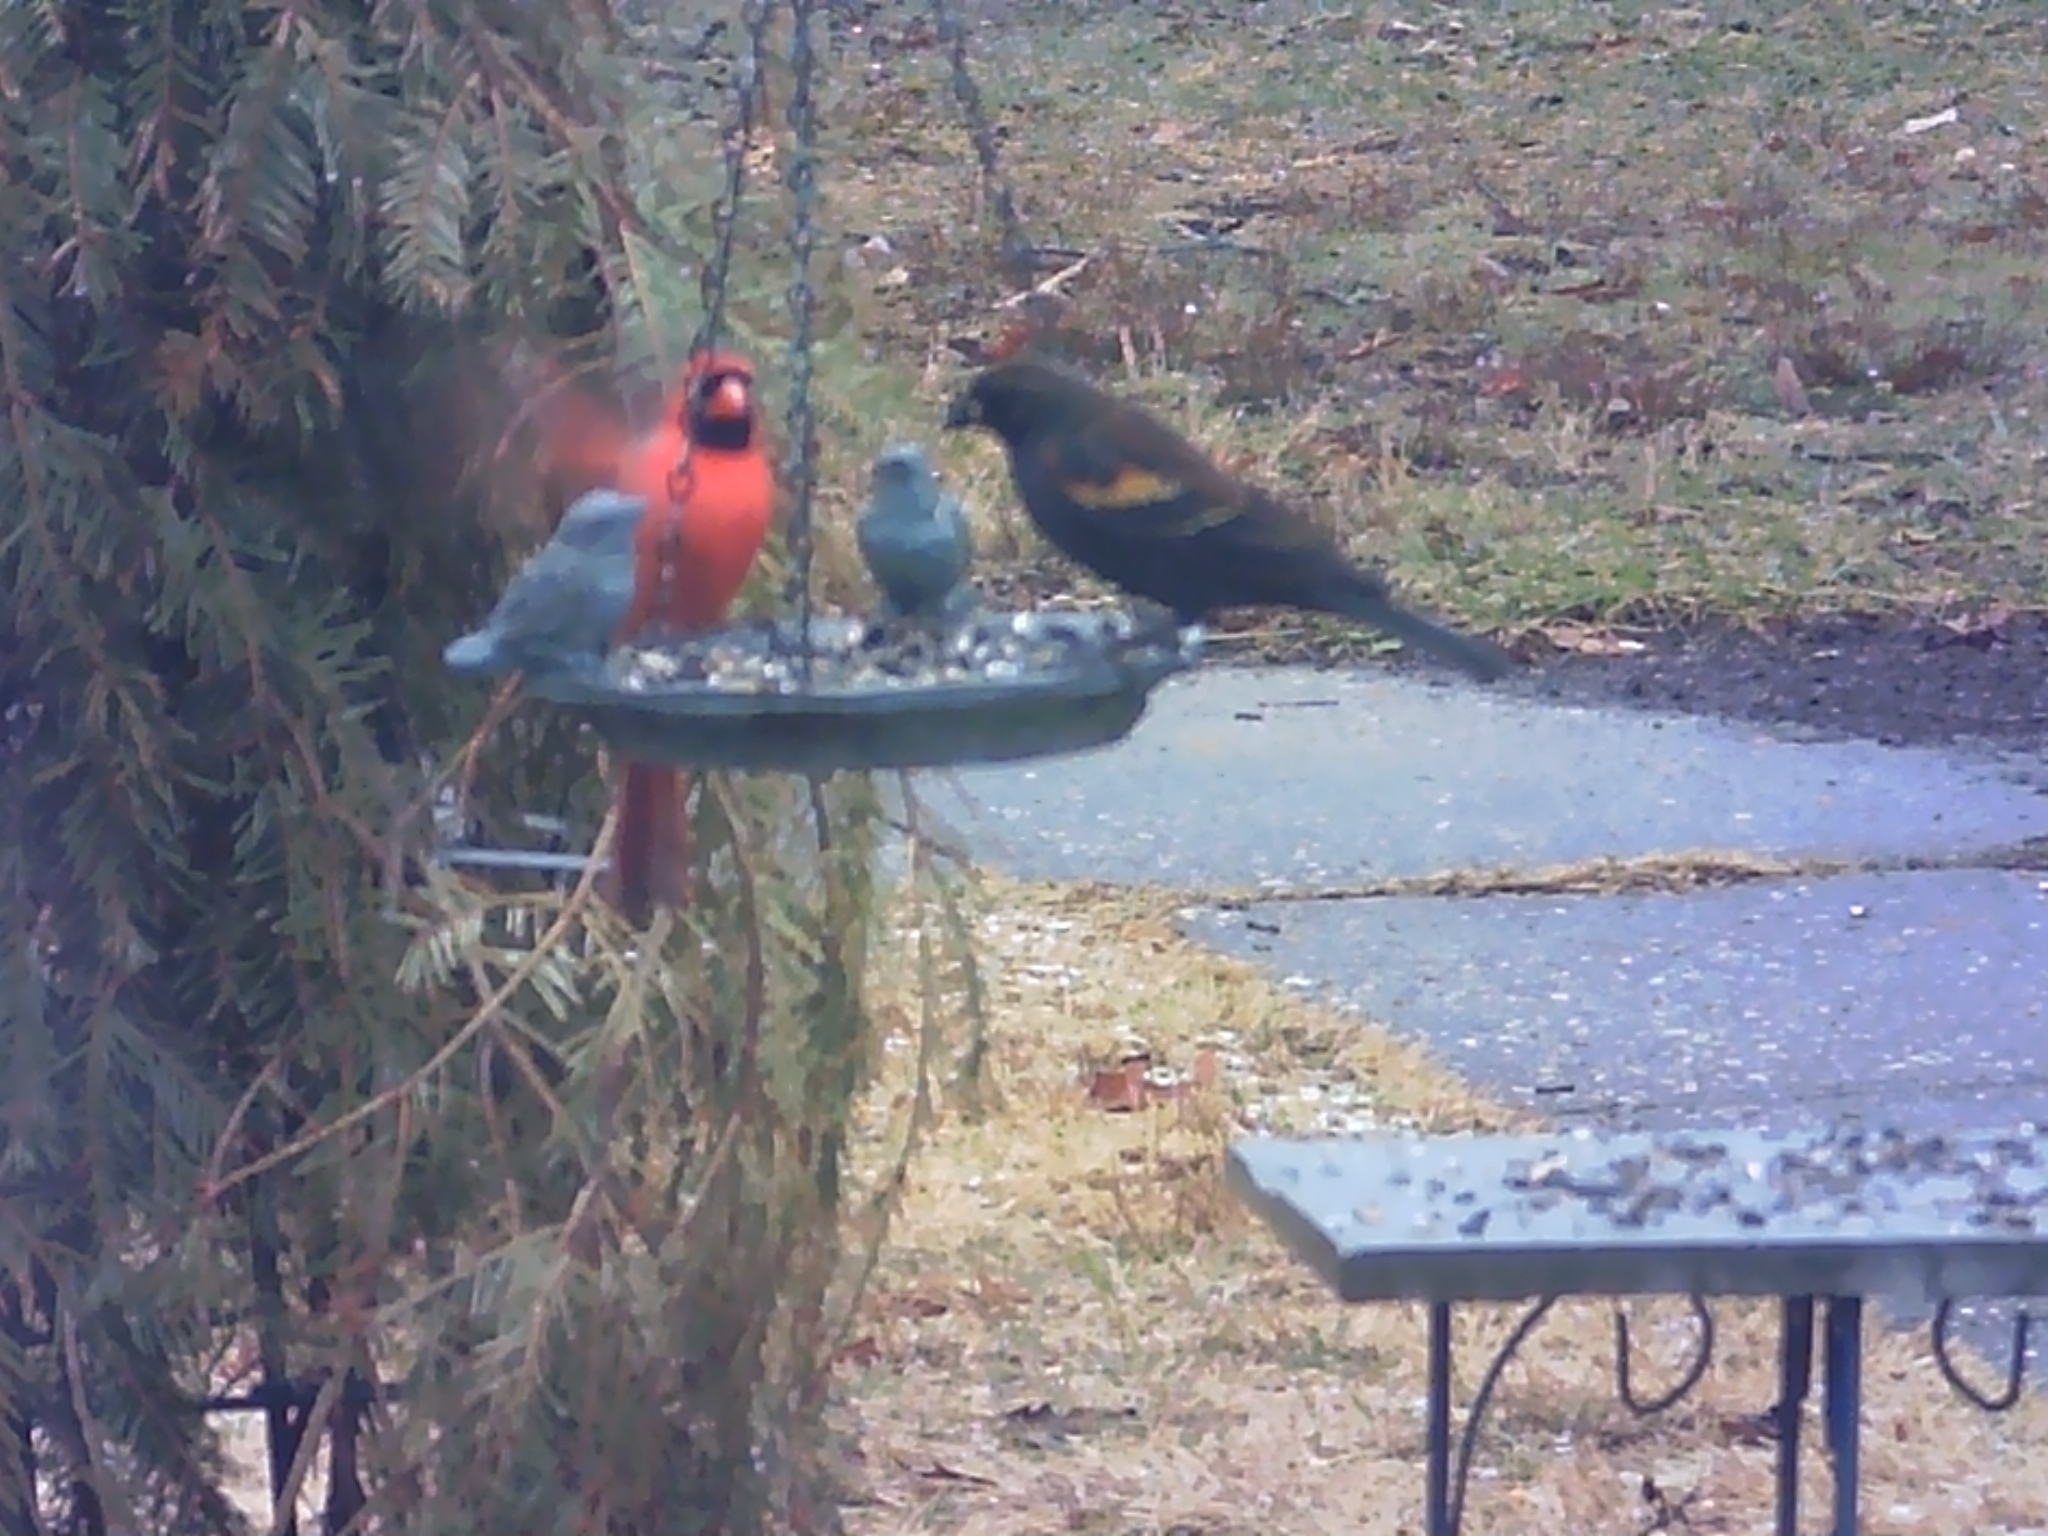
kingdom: Animalia
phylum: Chordata
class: Aves
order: Passeriformes
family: Icteridae
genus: Agelaius
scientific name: Agelaius phoeniceus
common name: Red-winged blackbird
